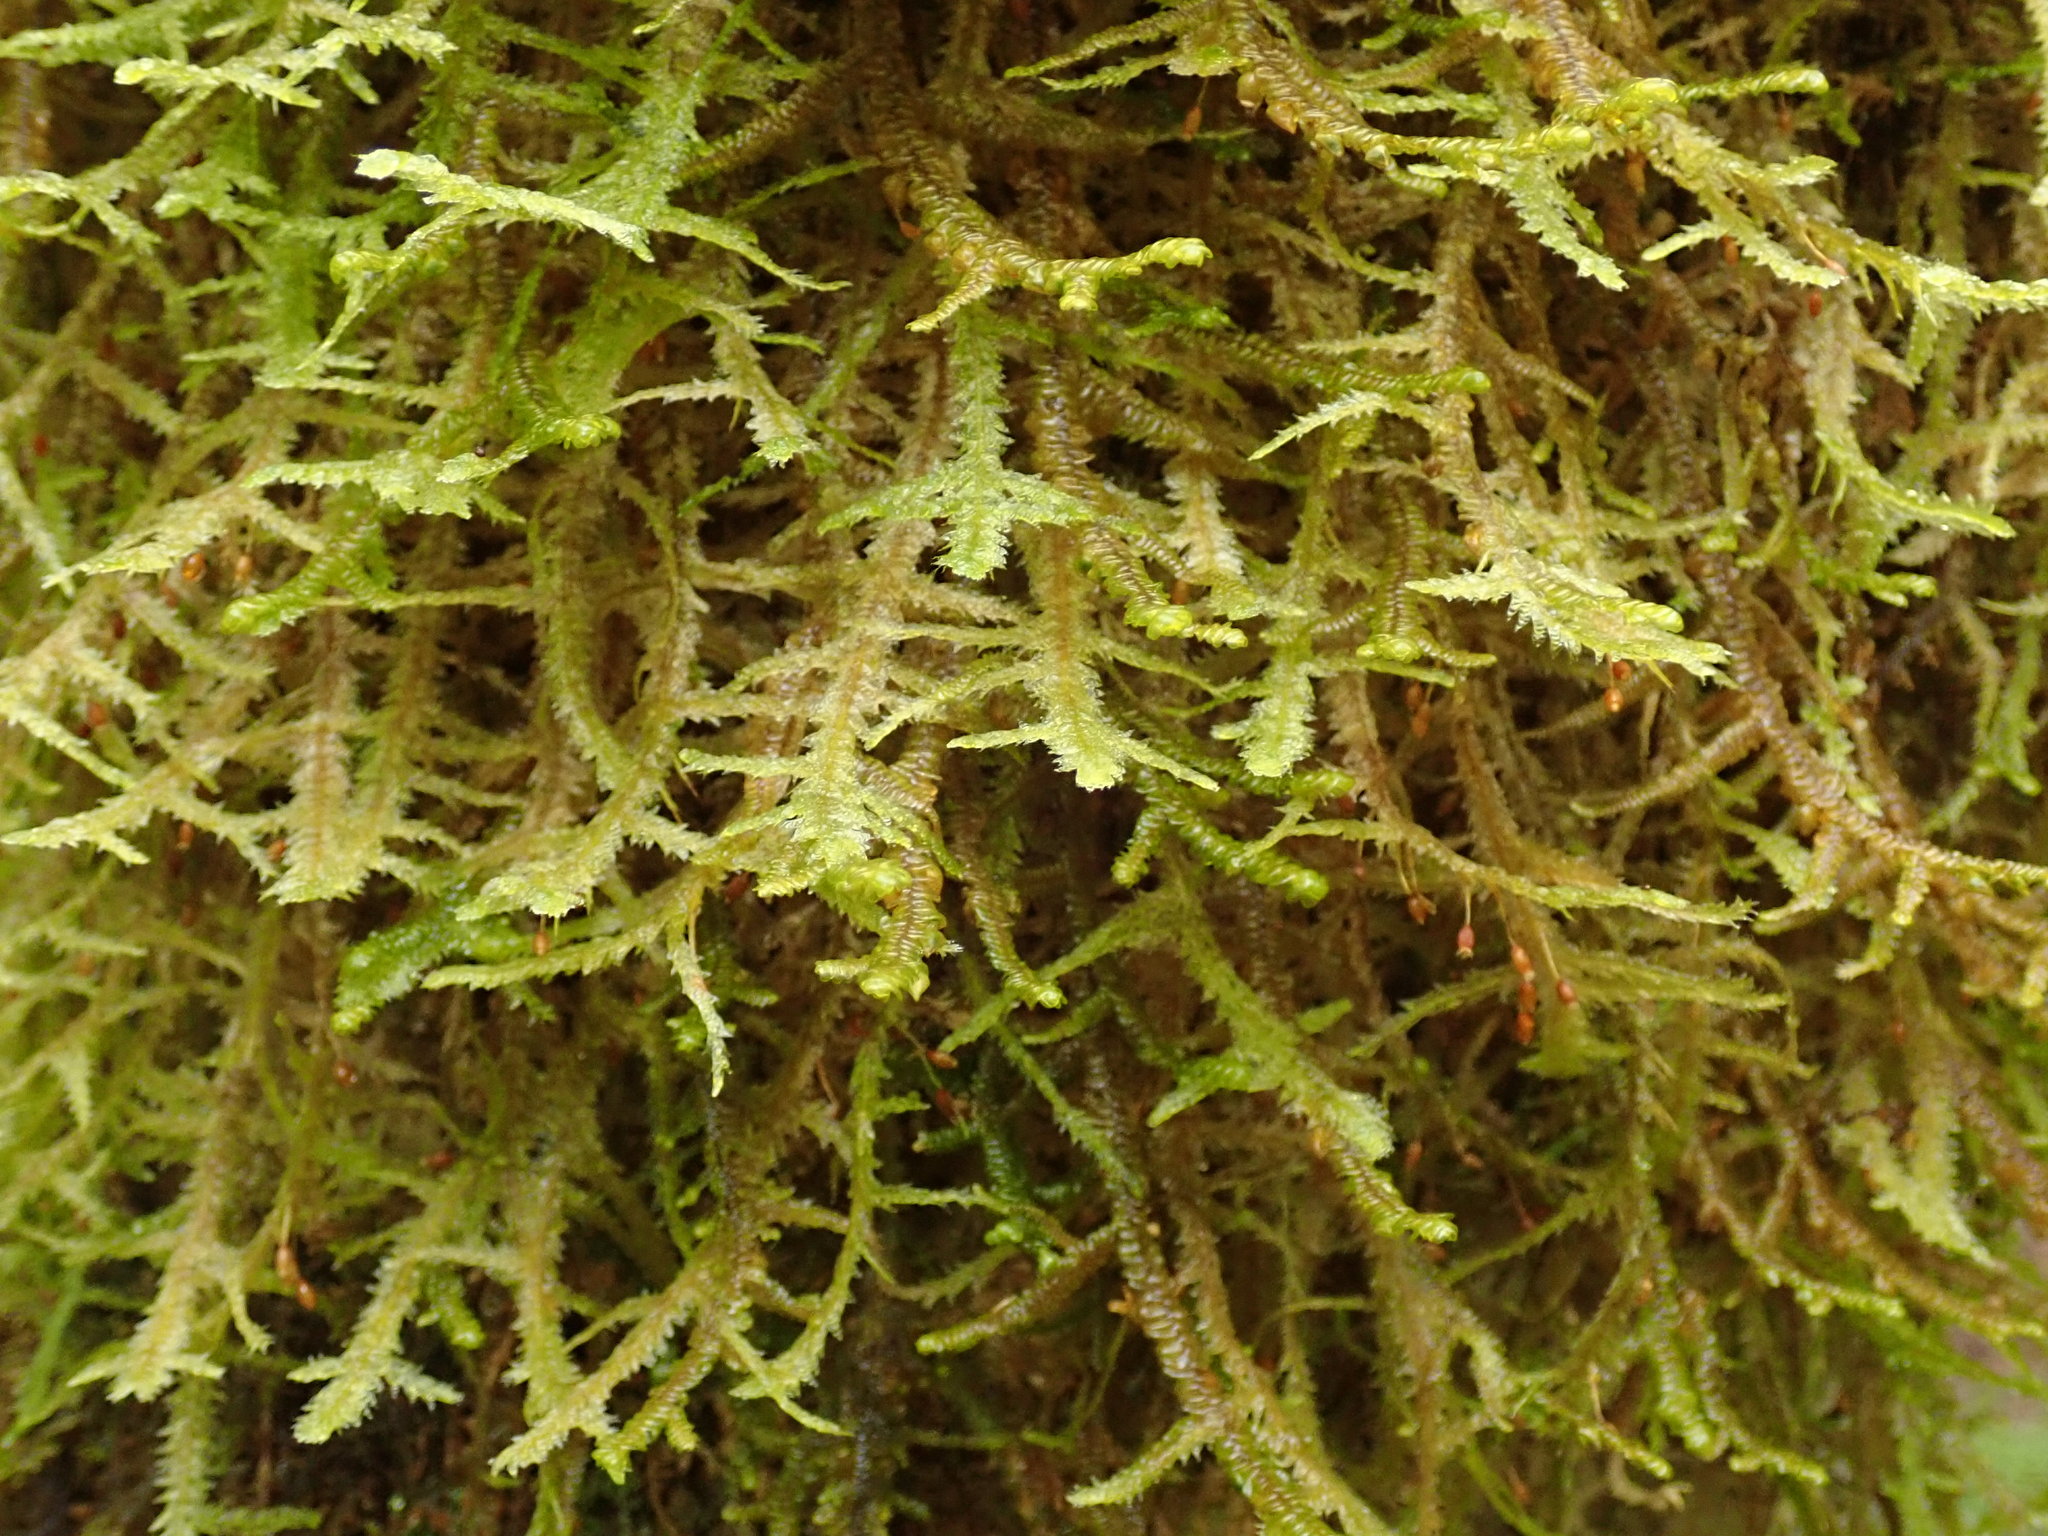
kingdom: Plantae
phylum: Bryophyta
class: Bryopsida
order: Hypnales
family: Neckeraceae
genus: Neckera
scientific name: Neckera douglasii
